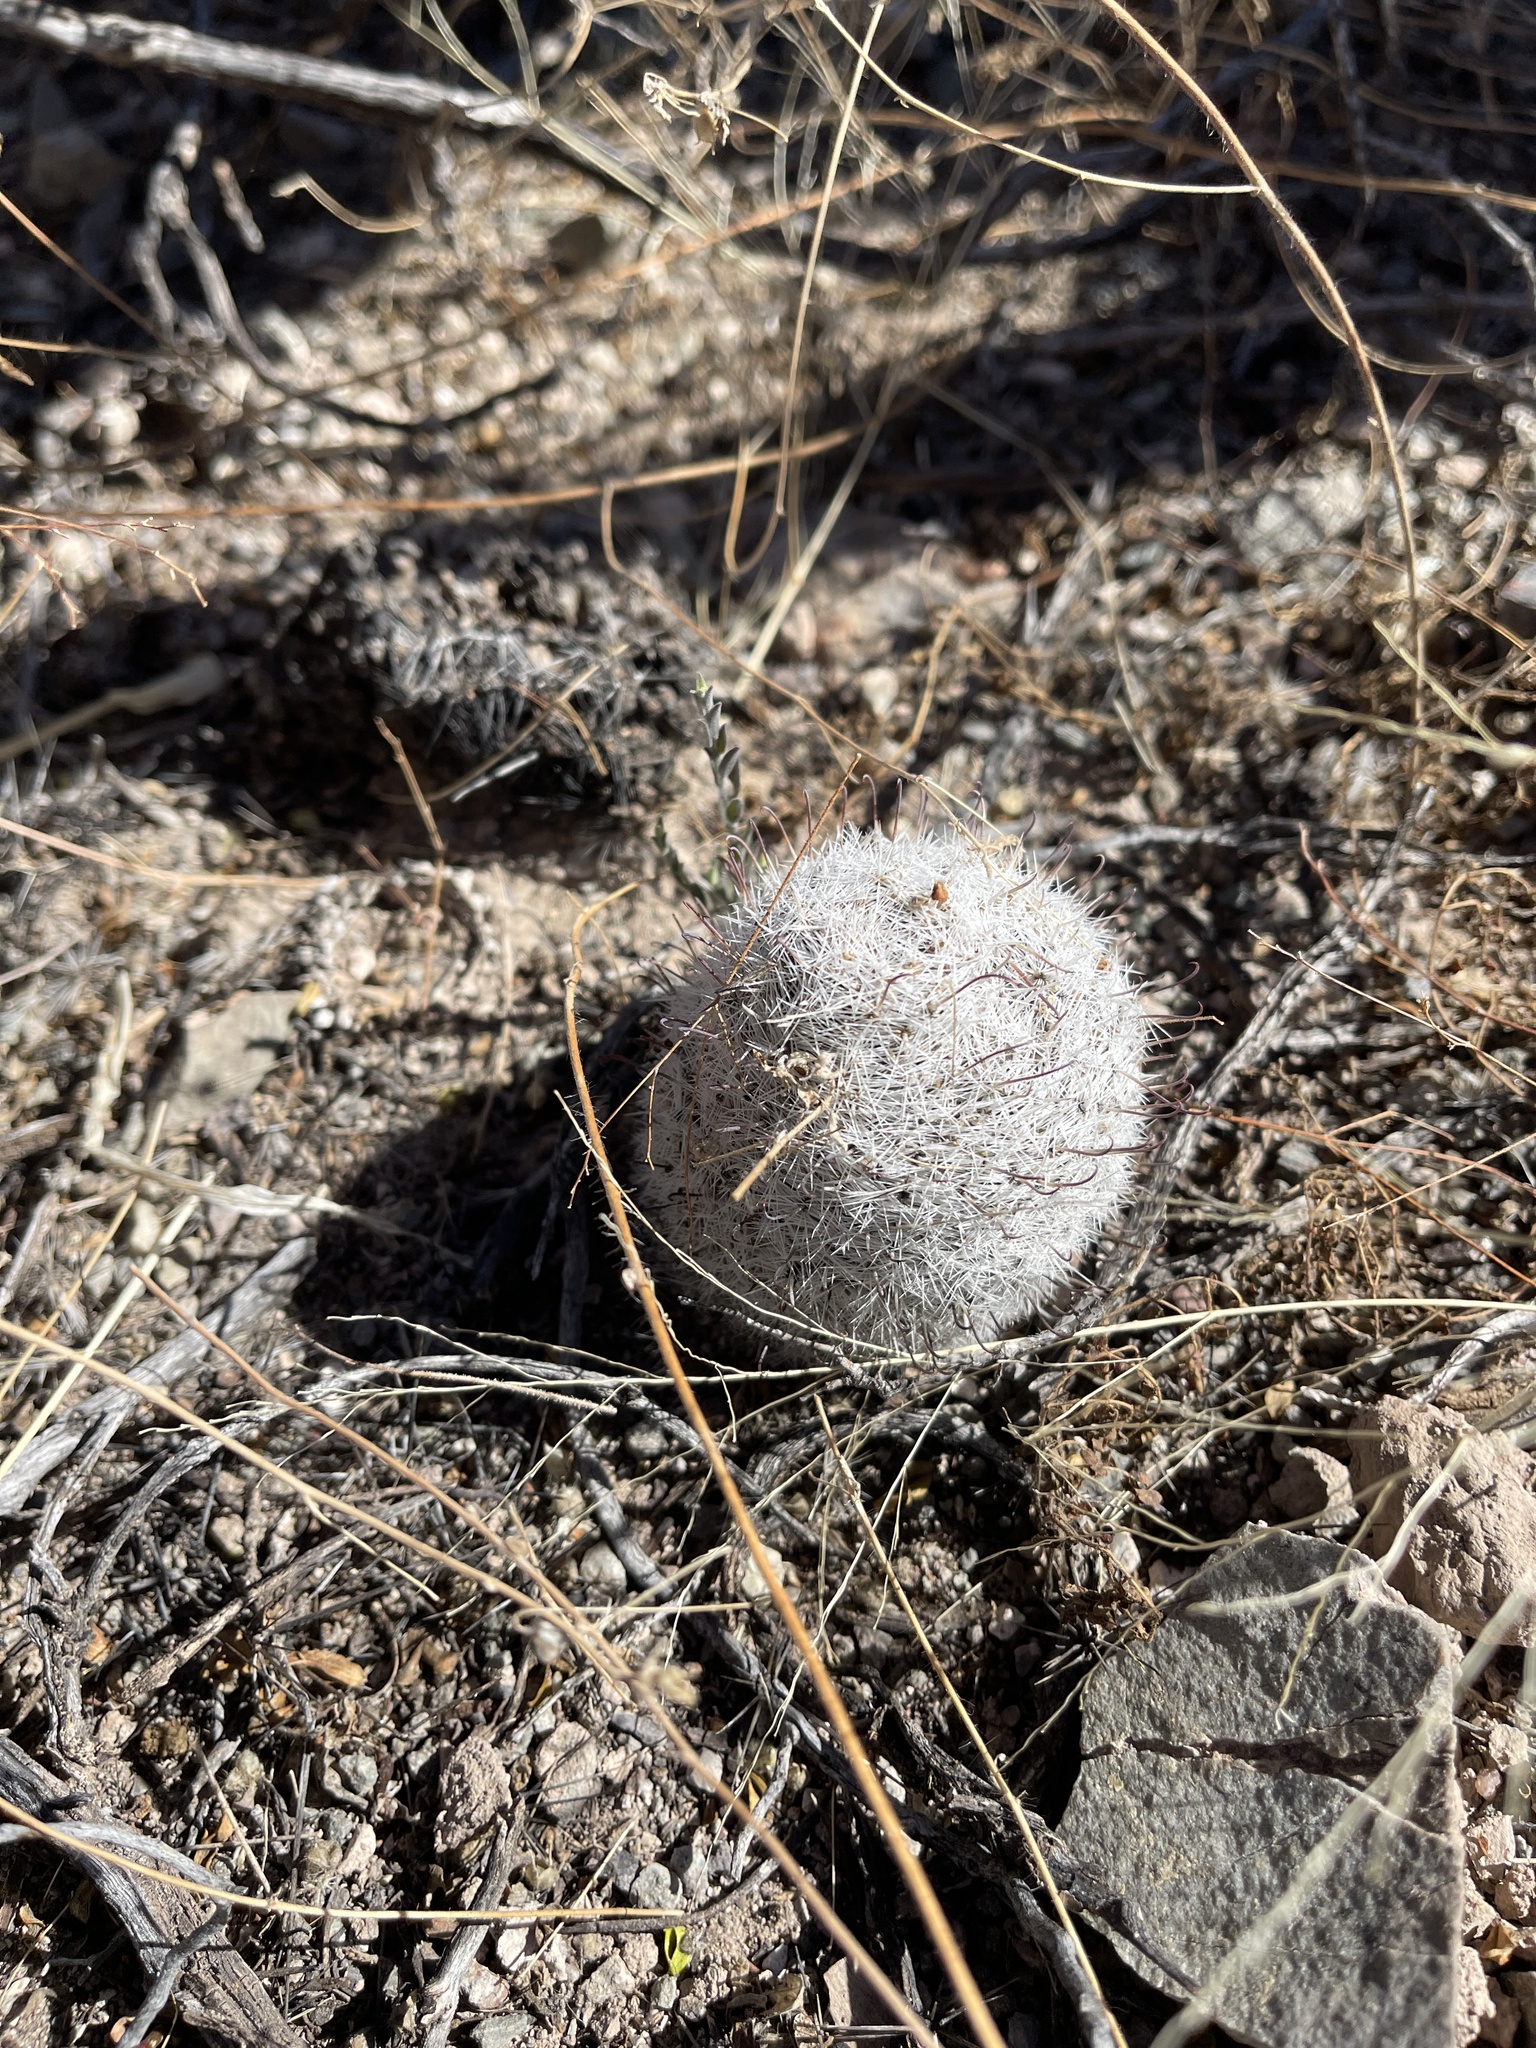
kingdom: Plantae
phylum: Tracheophyta
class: Magnoliopsida
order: Caryophyllales
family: Cactaceae
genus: Cochemiea
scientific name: Cochemiea grahamii
